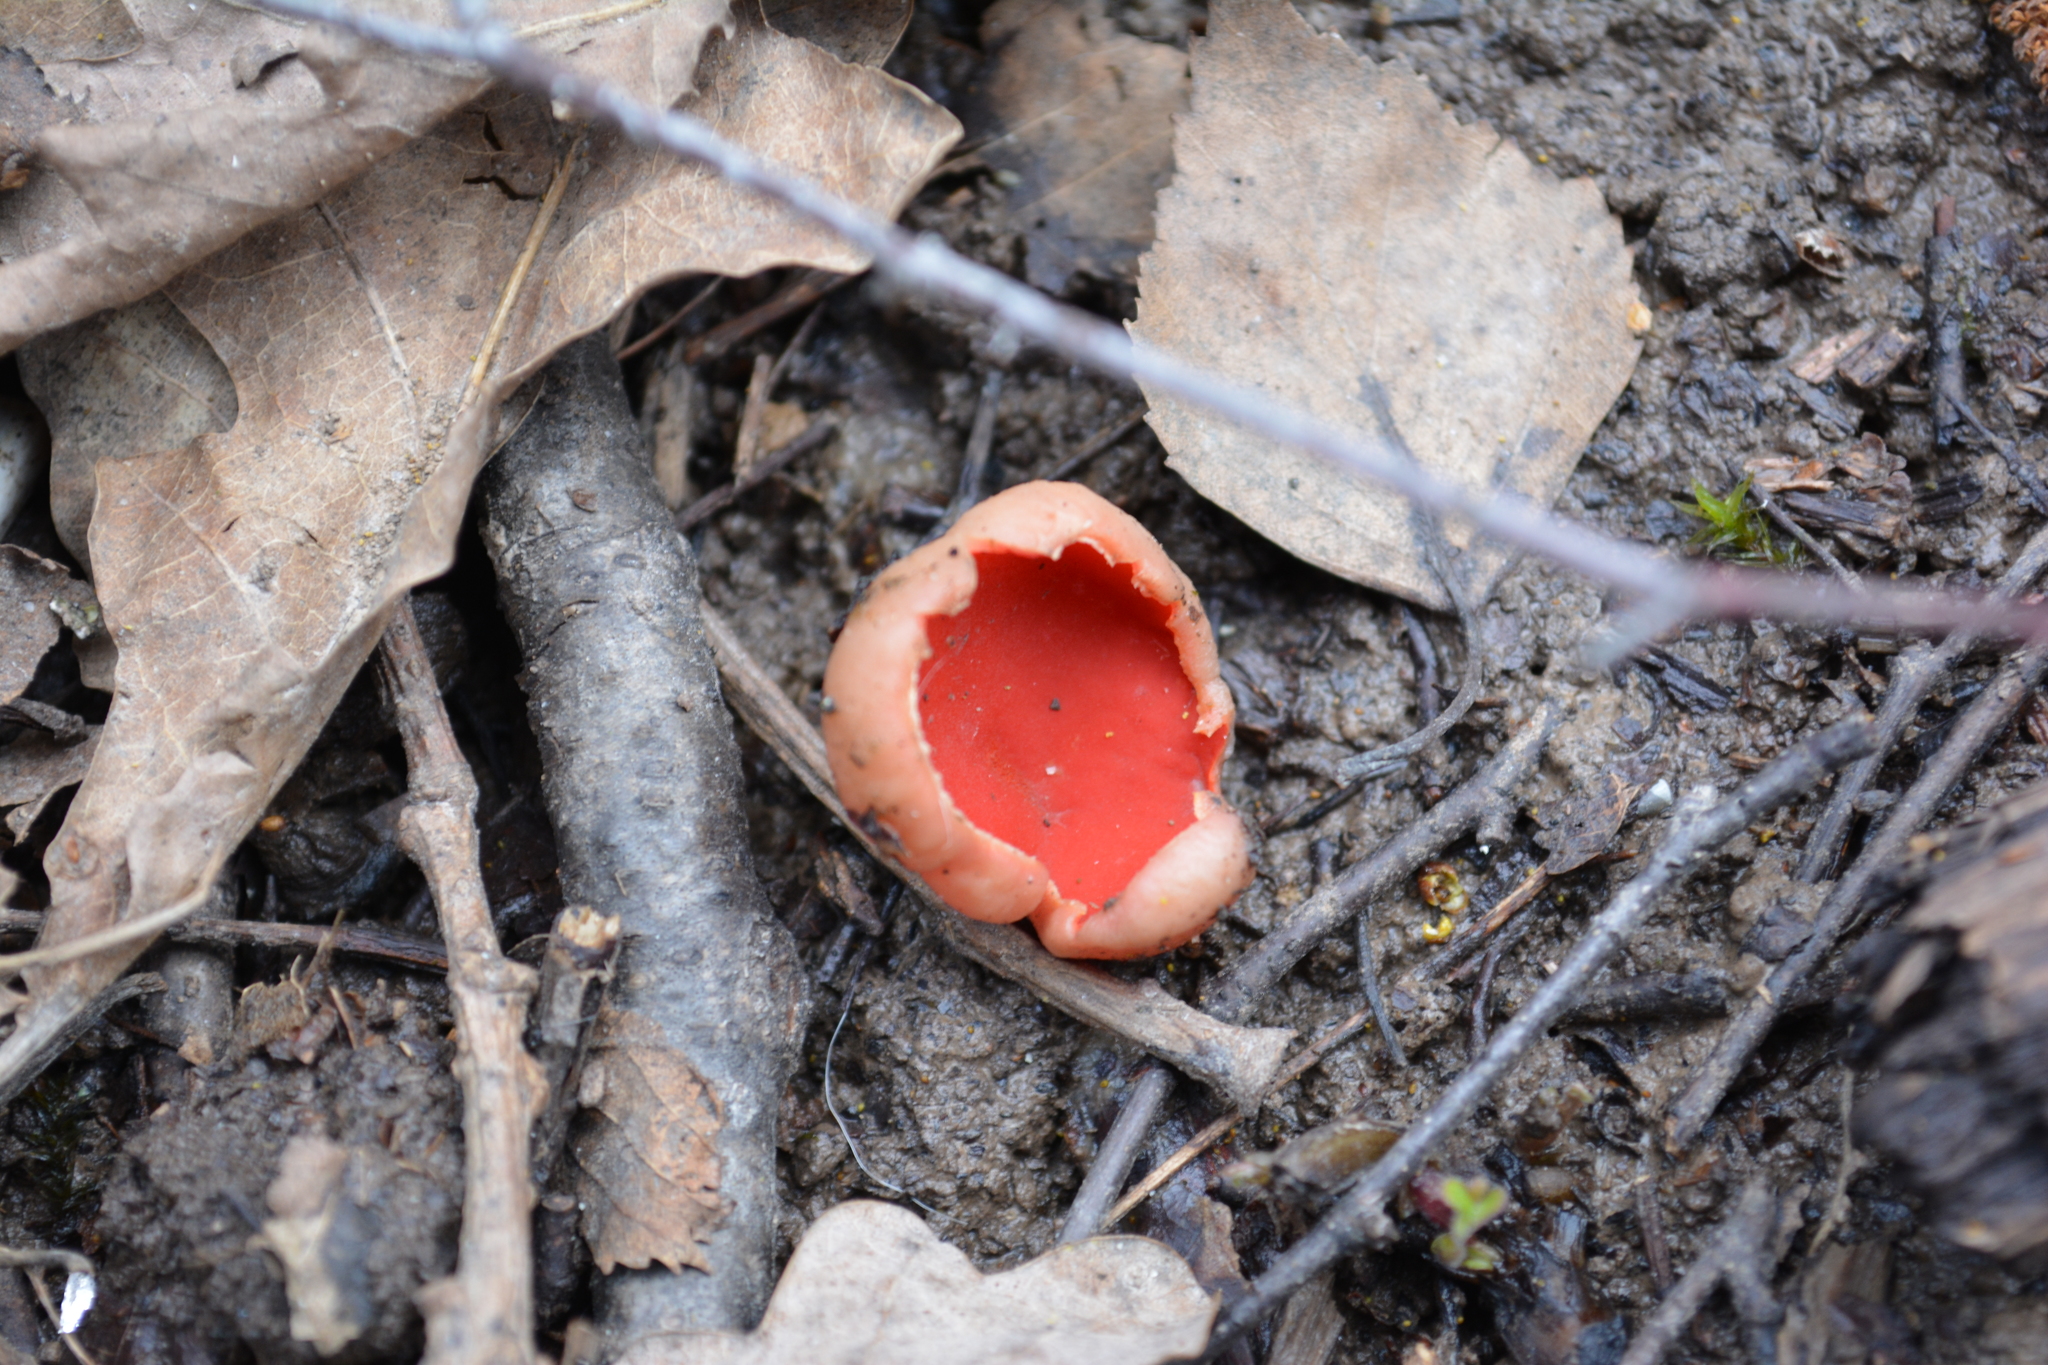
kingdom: Fungi
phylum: Ascomycota
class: Pezizomycetes
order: Pezizales
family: Sarcoscyphaceae
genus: Sarcoscypha
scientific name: Sarcoscypha austriaca
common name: Scarlet elfcup
